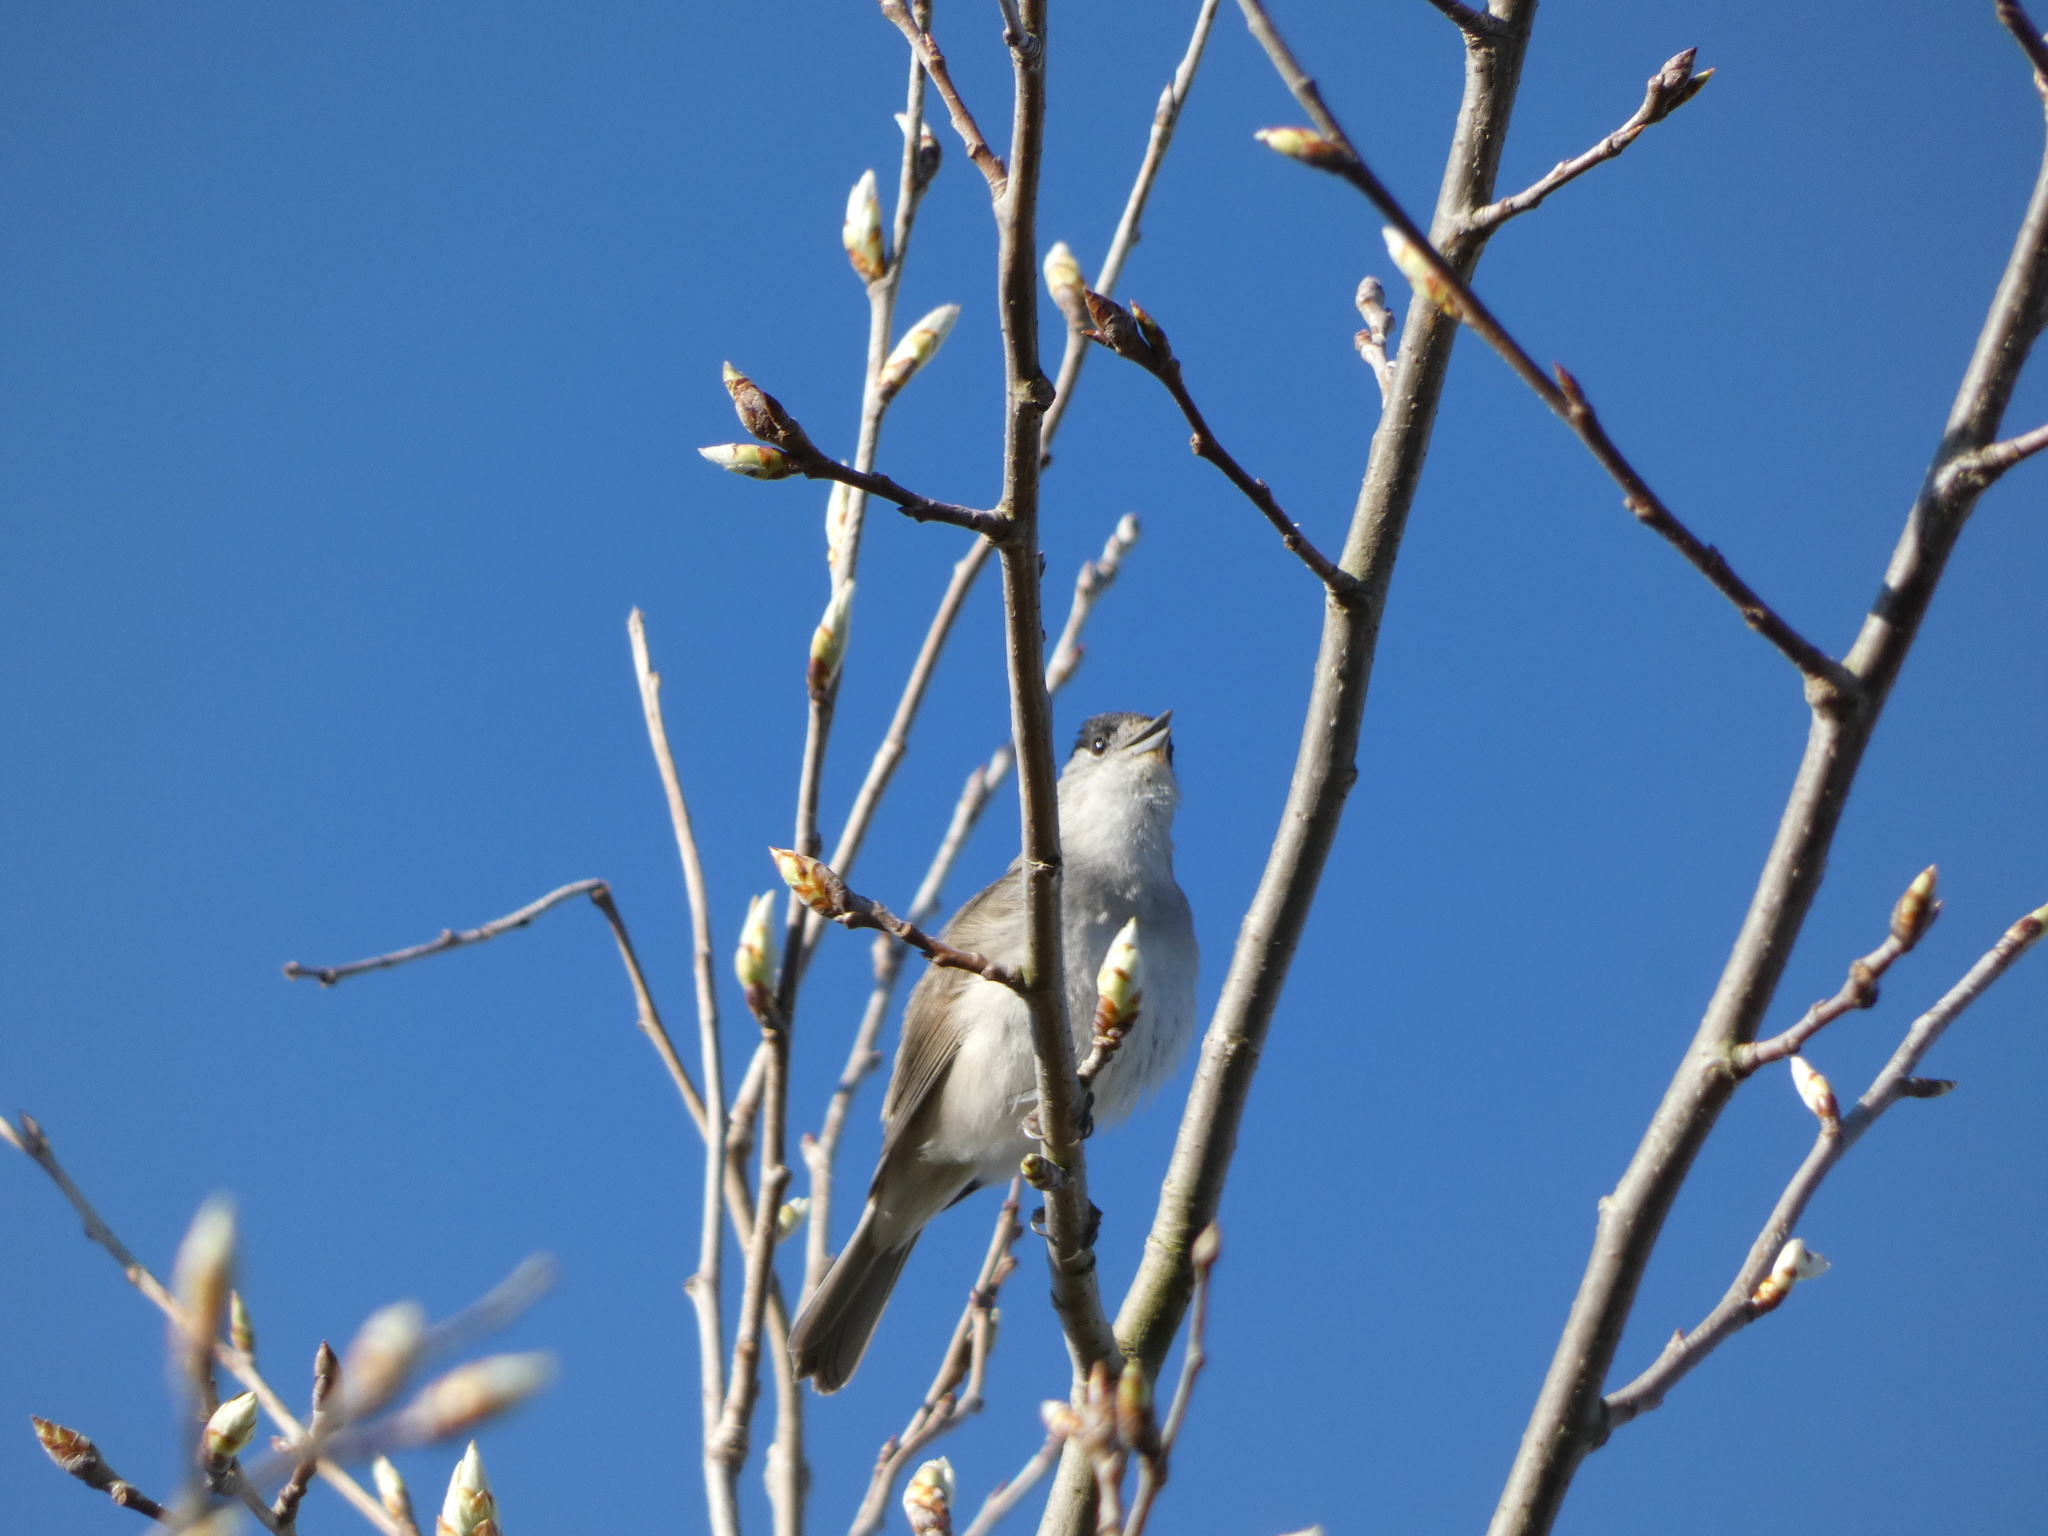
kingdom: Animalia
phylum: Chordata
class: Aves
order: Passeriformes
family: Sylviidae
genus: Sylvia
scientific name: Sylvia atricapilla
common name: Eurasian blackcap
